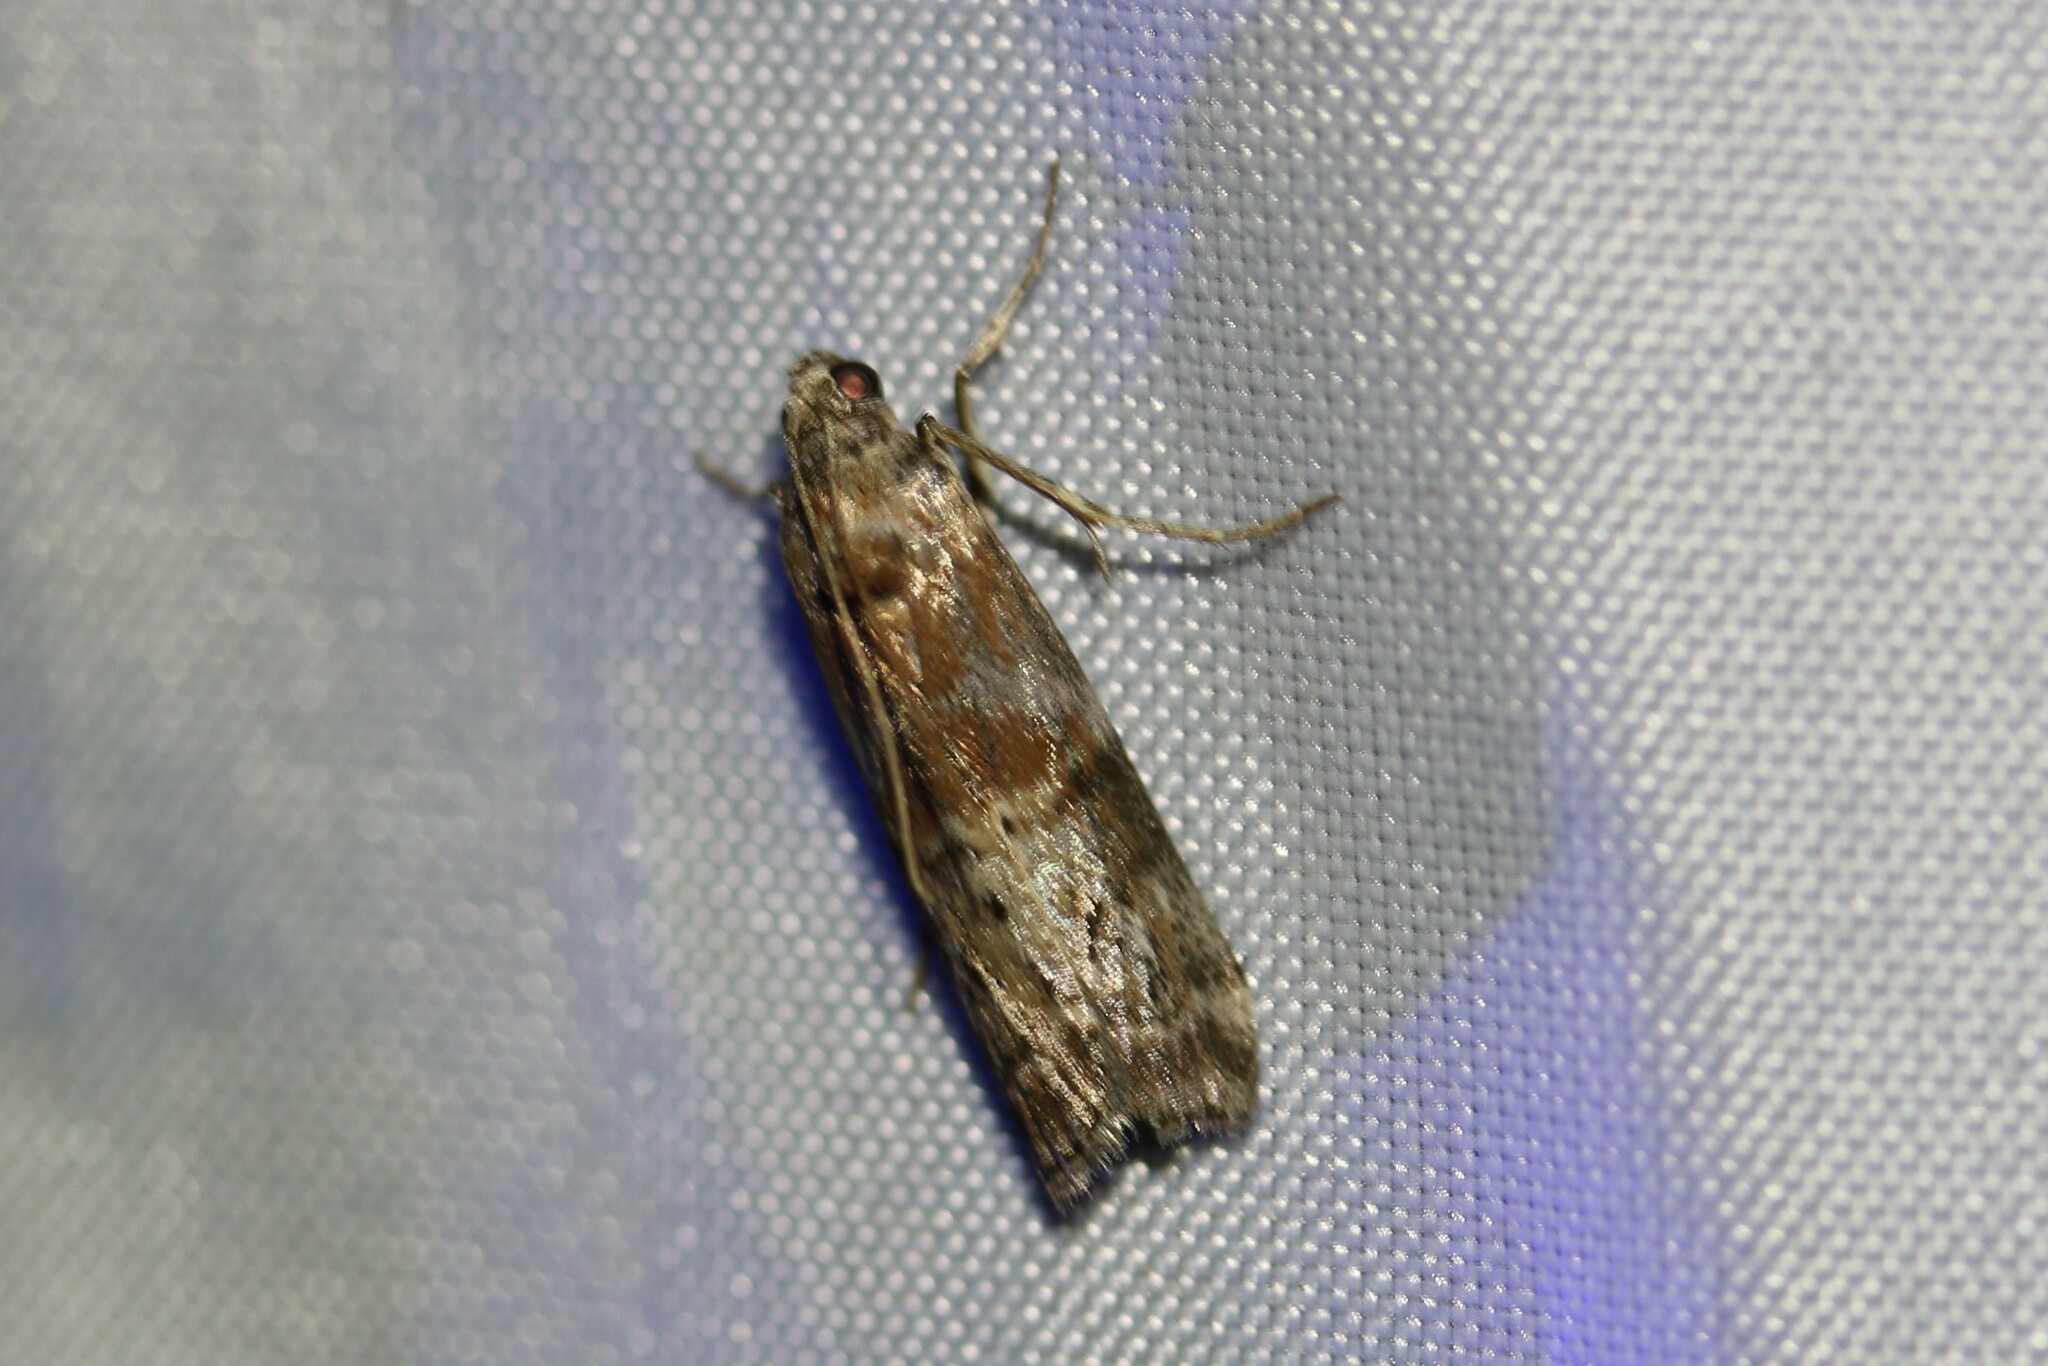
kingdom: Animalia
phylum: Arthropoda
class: Insecta
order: Lepidoptera
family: Pyralidae
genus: Phycita
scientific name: Phycita roborella
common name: Dotted oak knot-horn
